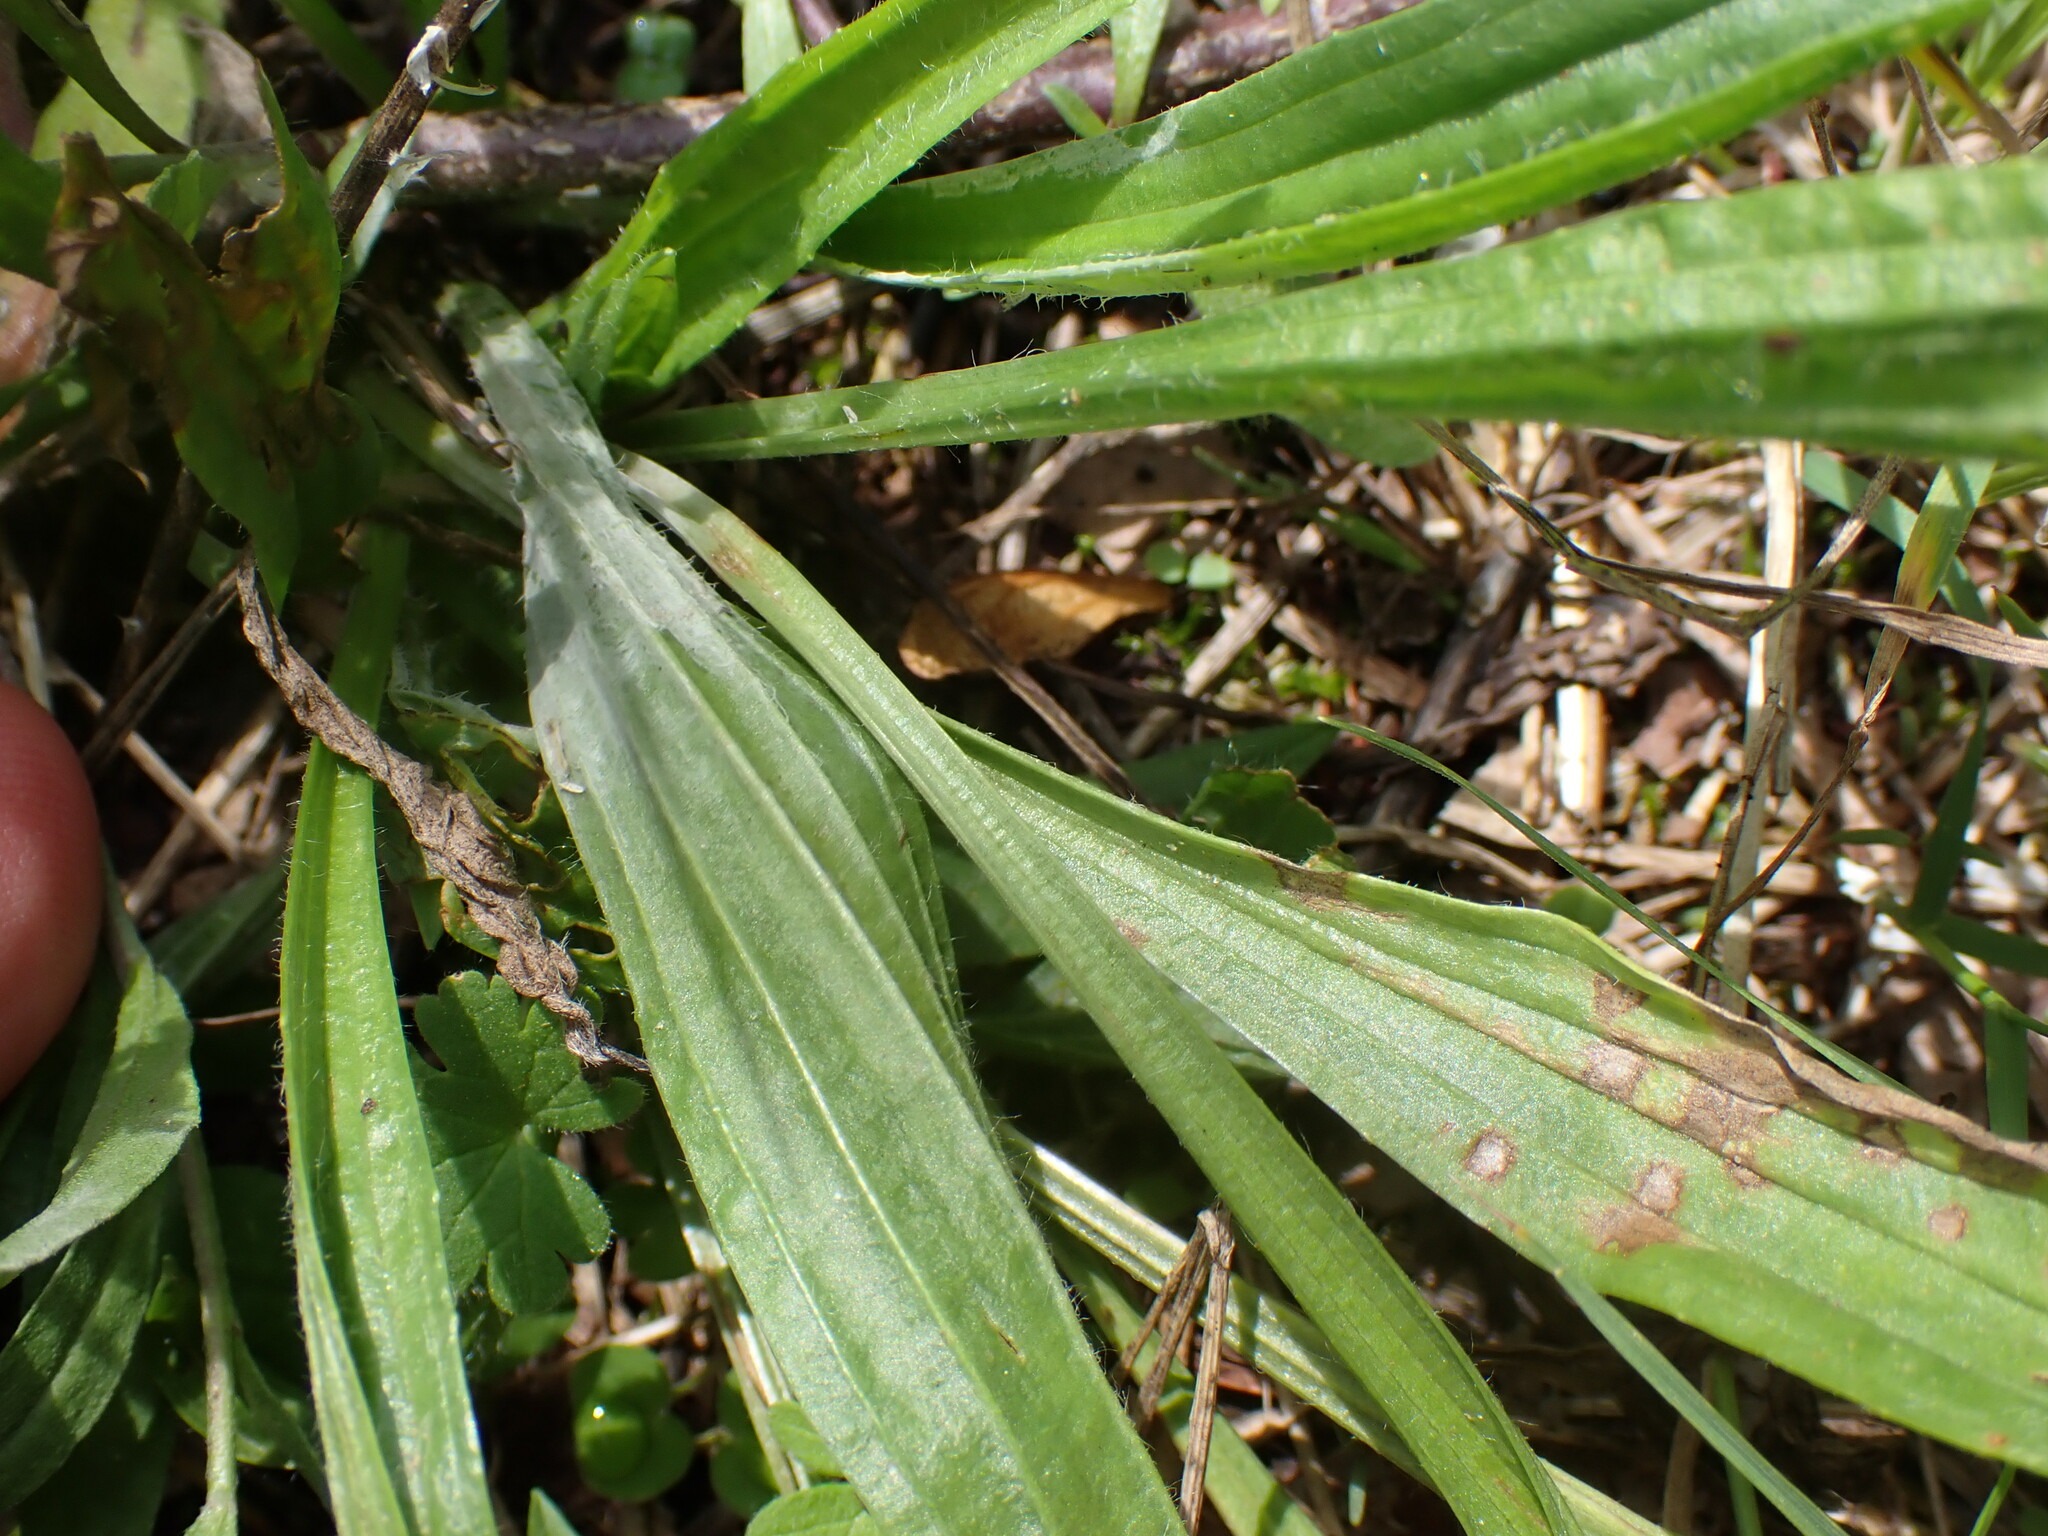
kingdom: Plantae
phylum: Tracheophyta
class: Magnoliopsida
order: Lamiales
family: Plantaginaceae
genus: Plantago
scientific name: Plantago lanceolata
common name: Ribwort plantain
